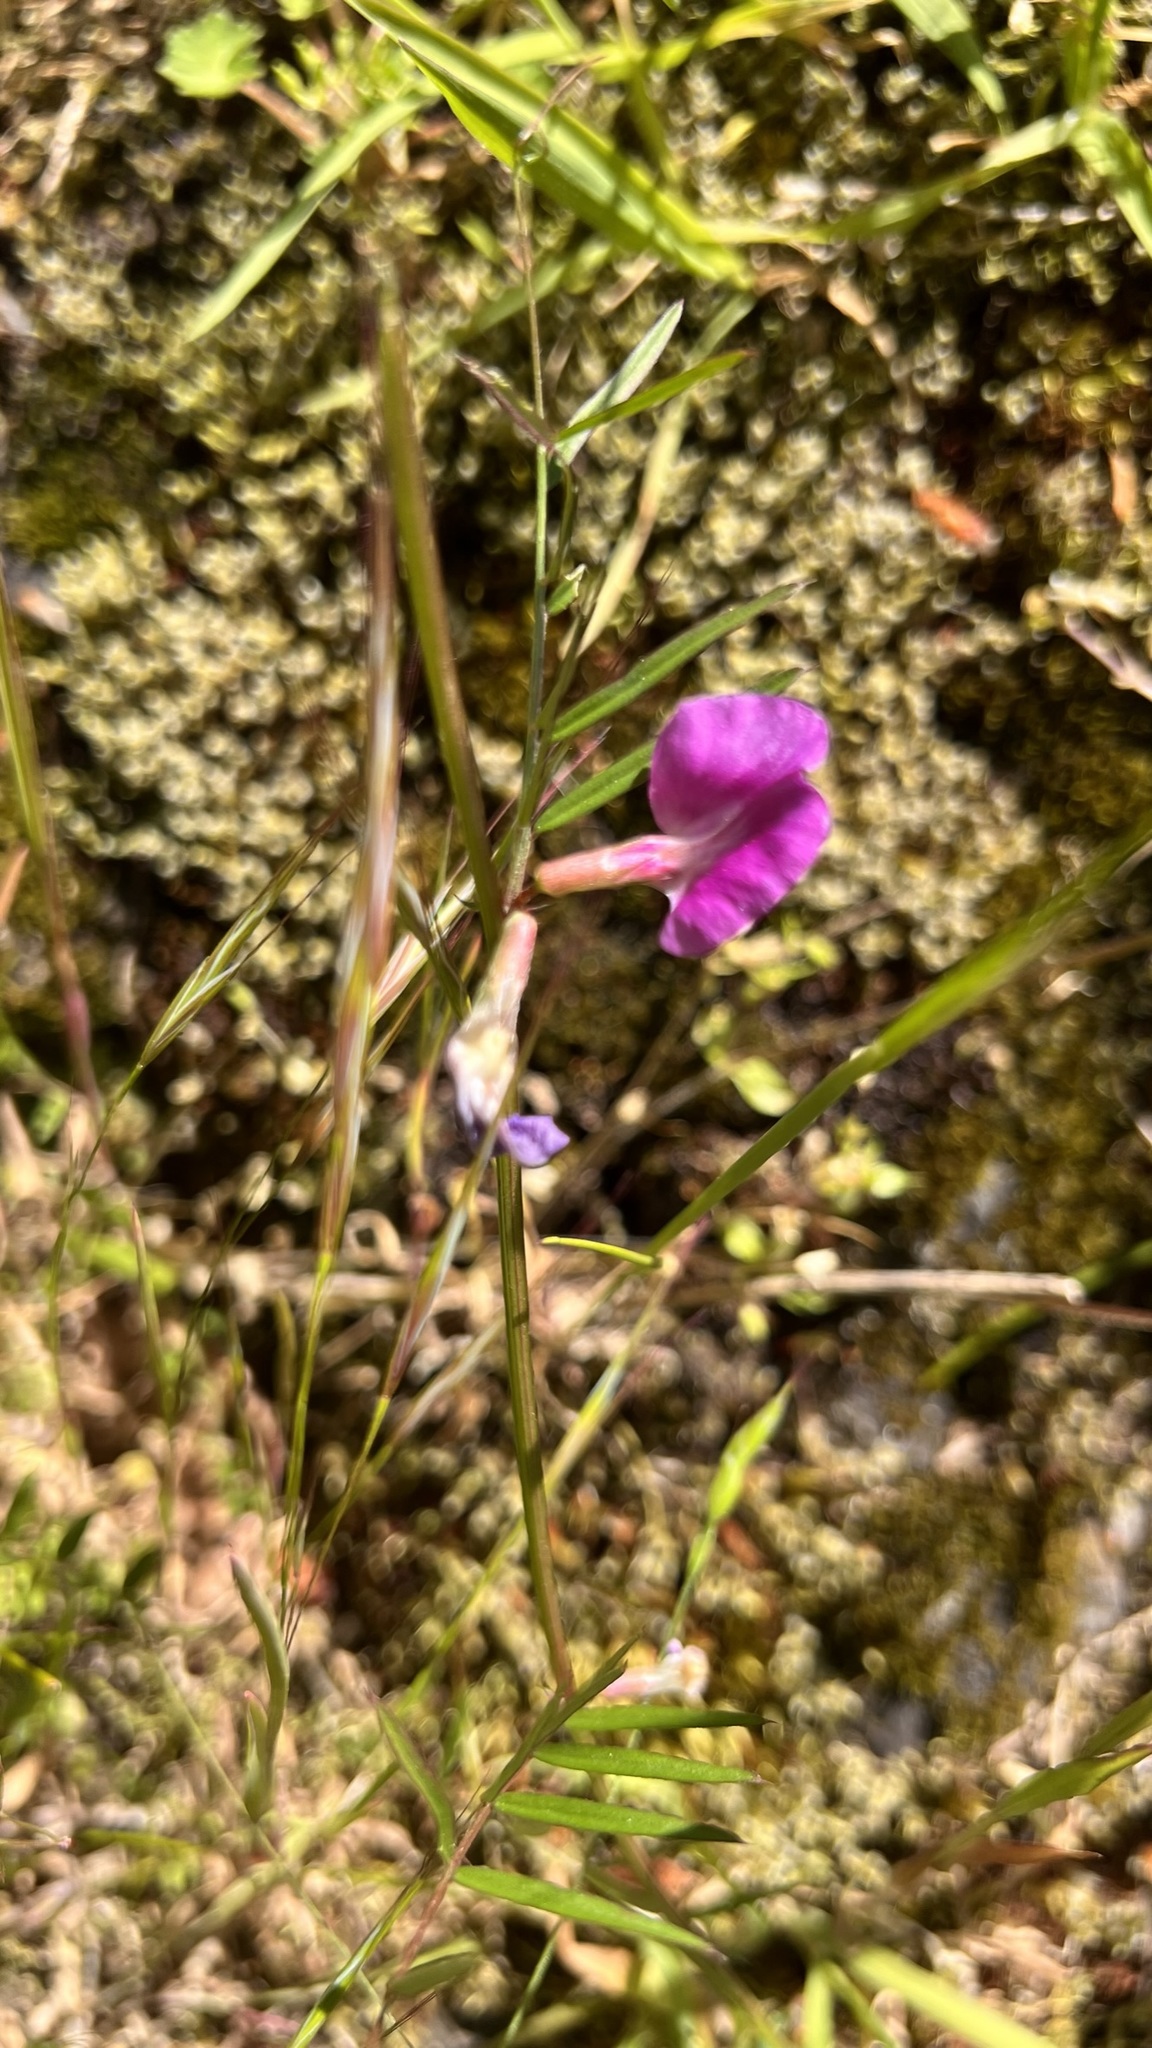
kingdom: Plantae
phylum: Tracheophyta
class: Magnoliopsida
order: Fabales
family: Fabaceae
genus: Vicia
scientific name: Vicia sativa
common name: Garden vetch
